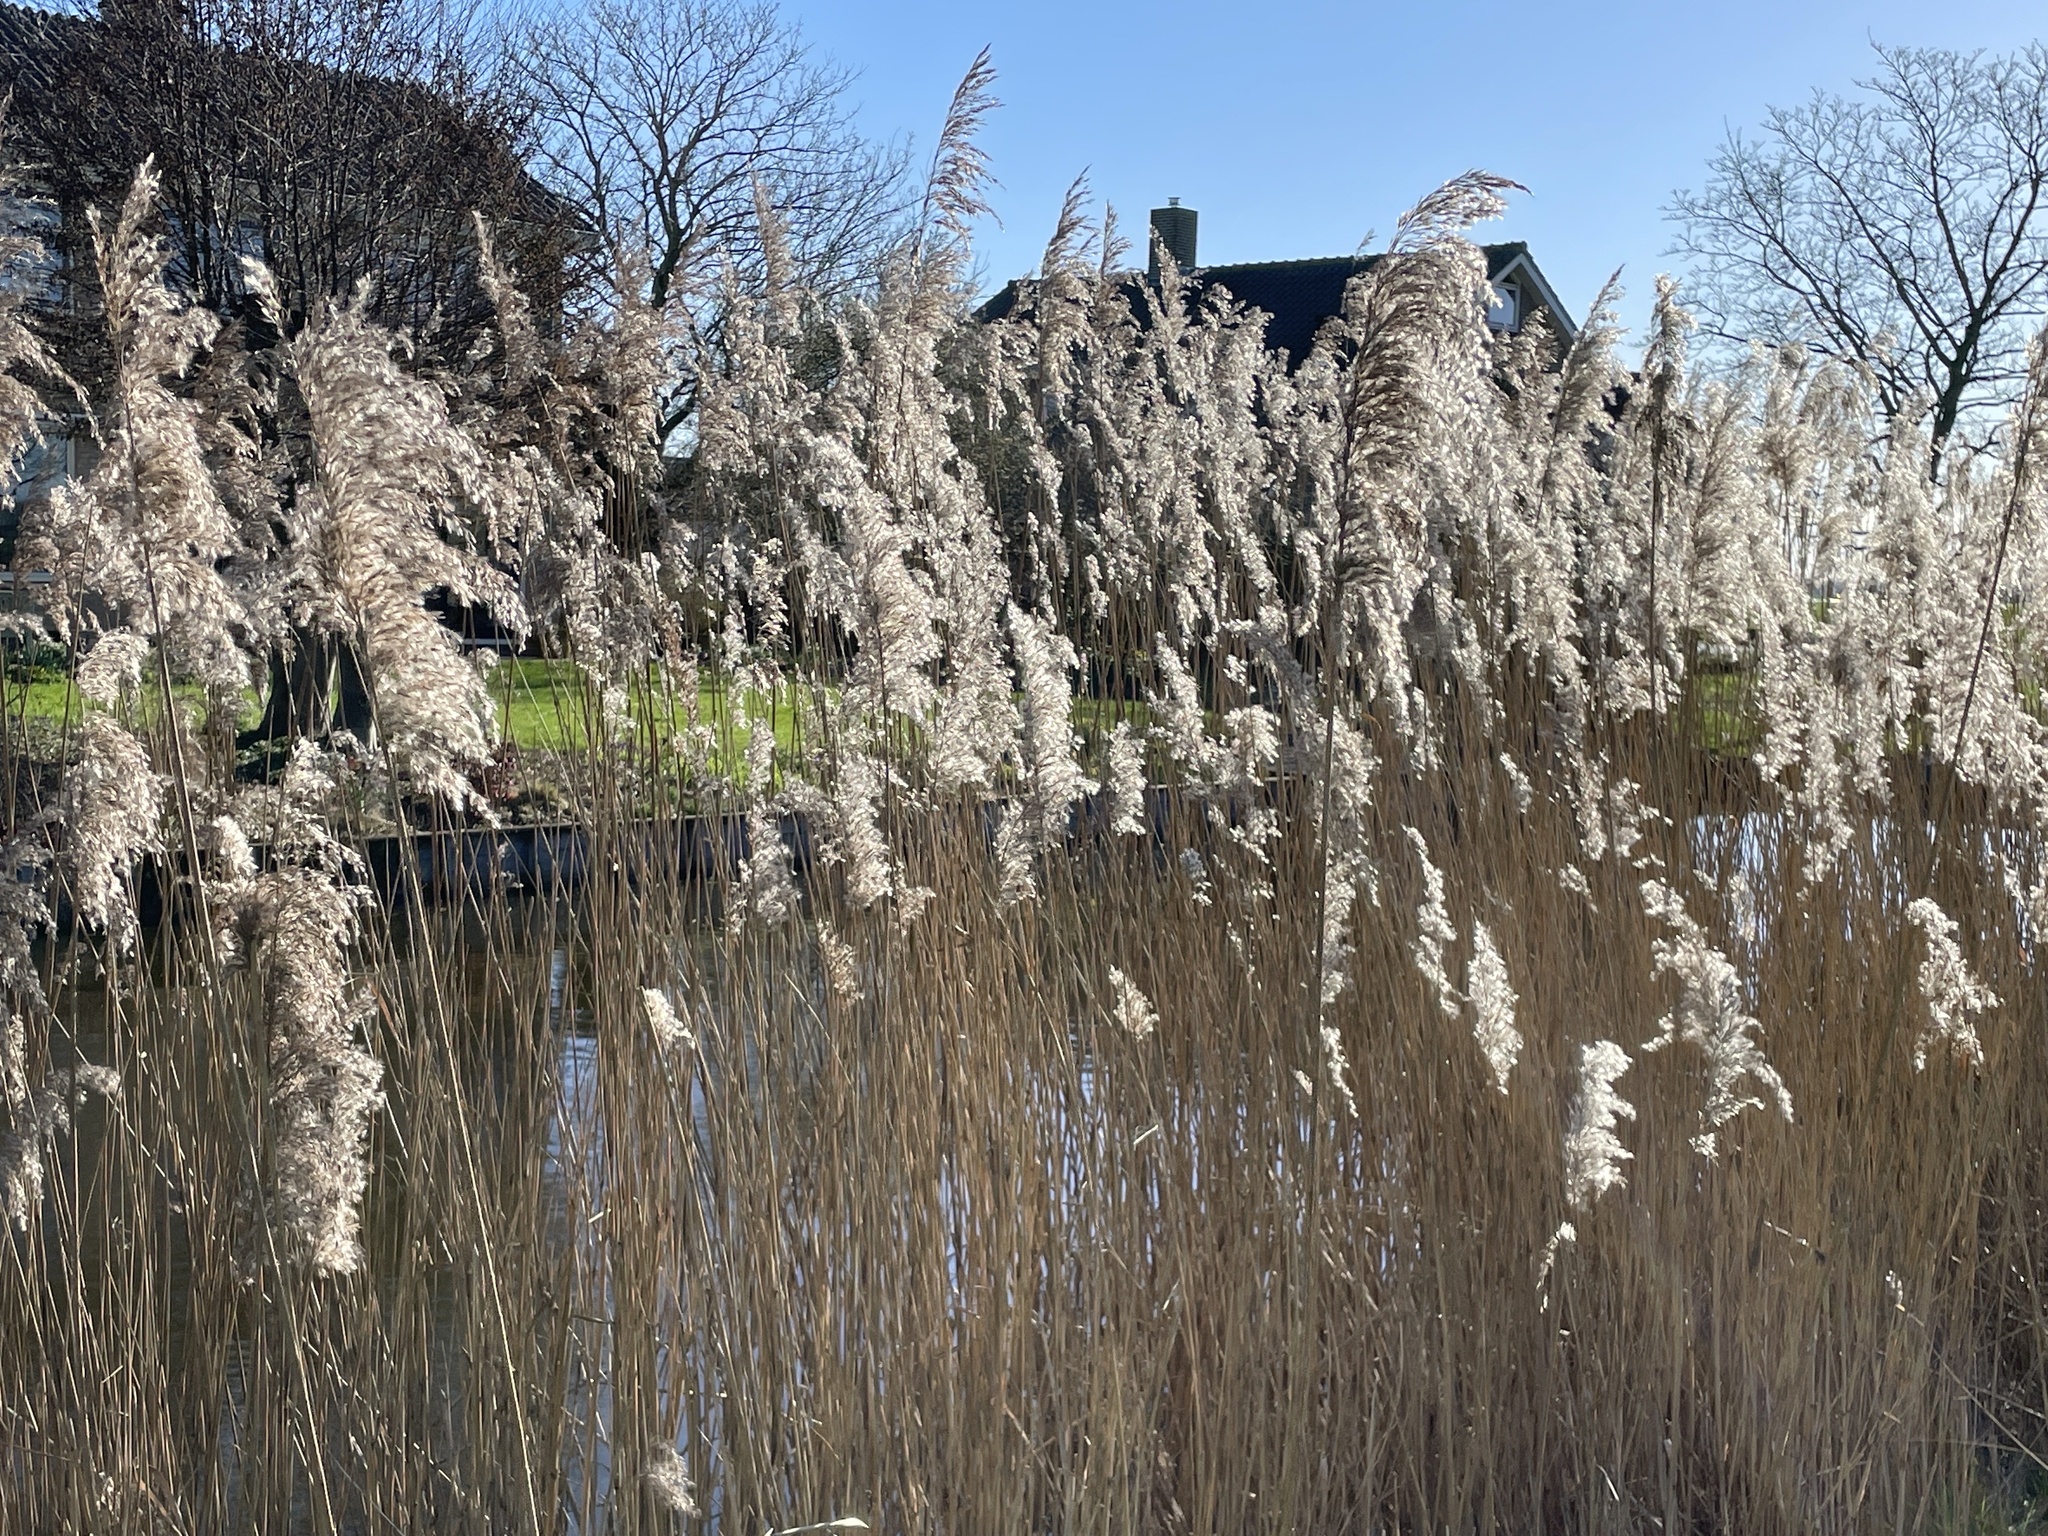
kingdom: Plantae
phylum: Tracheophyta
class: Liliopsida
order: Poales
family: Poaceae
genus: Phragmites
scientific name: Phragmites australis
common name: Common reed
